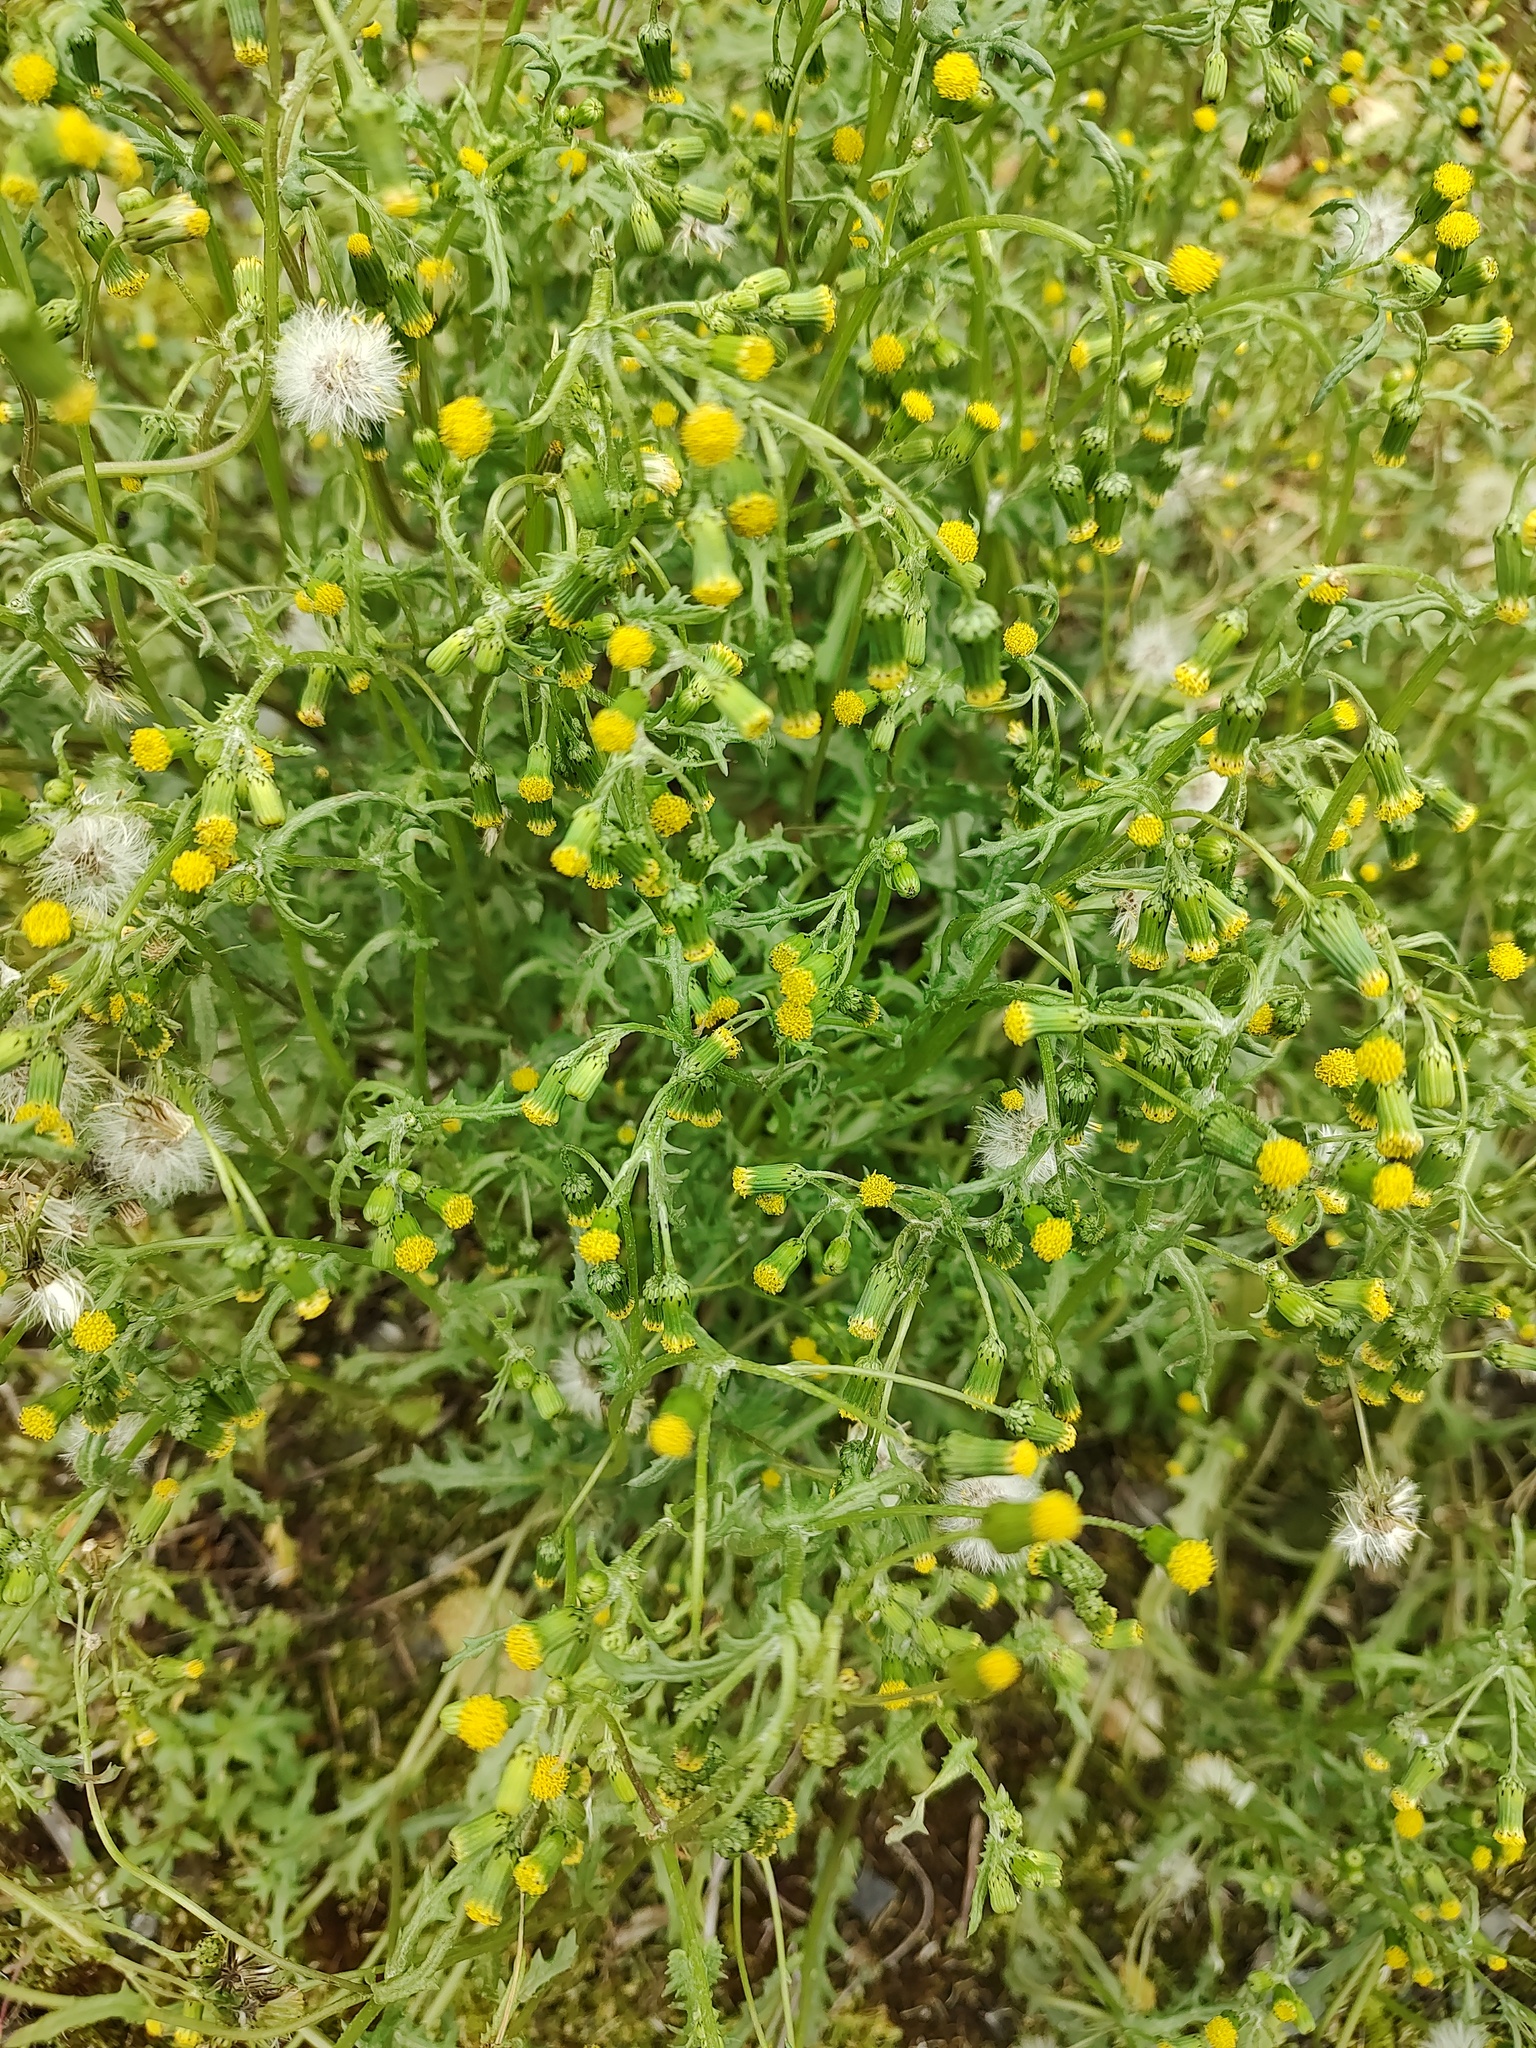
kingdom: Plantae
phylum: Tracheophyta
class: Magnoliopsida
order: Asterales
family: Asteraceae
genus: Senecio
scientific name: Senecio vulgaris
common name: Old-man-in-the-spring
